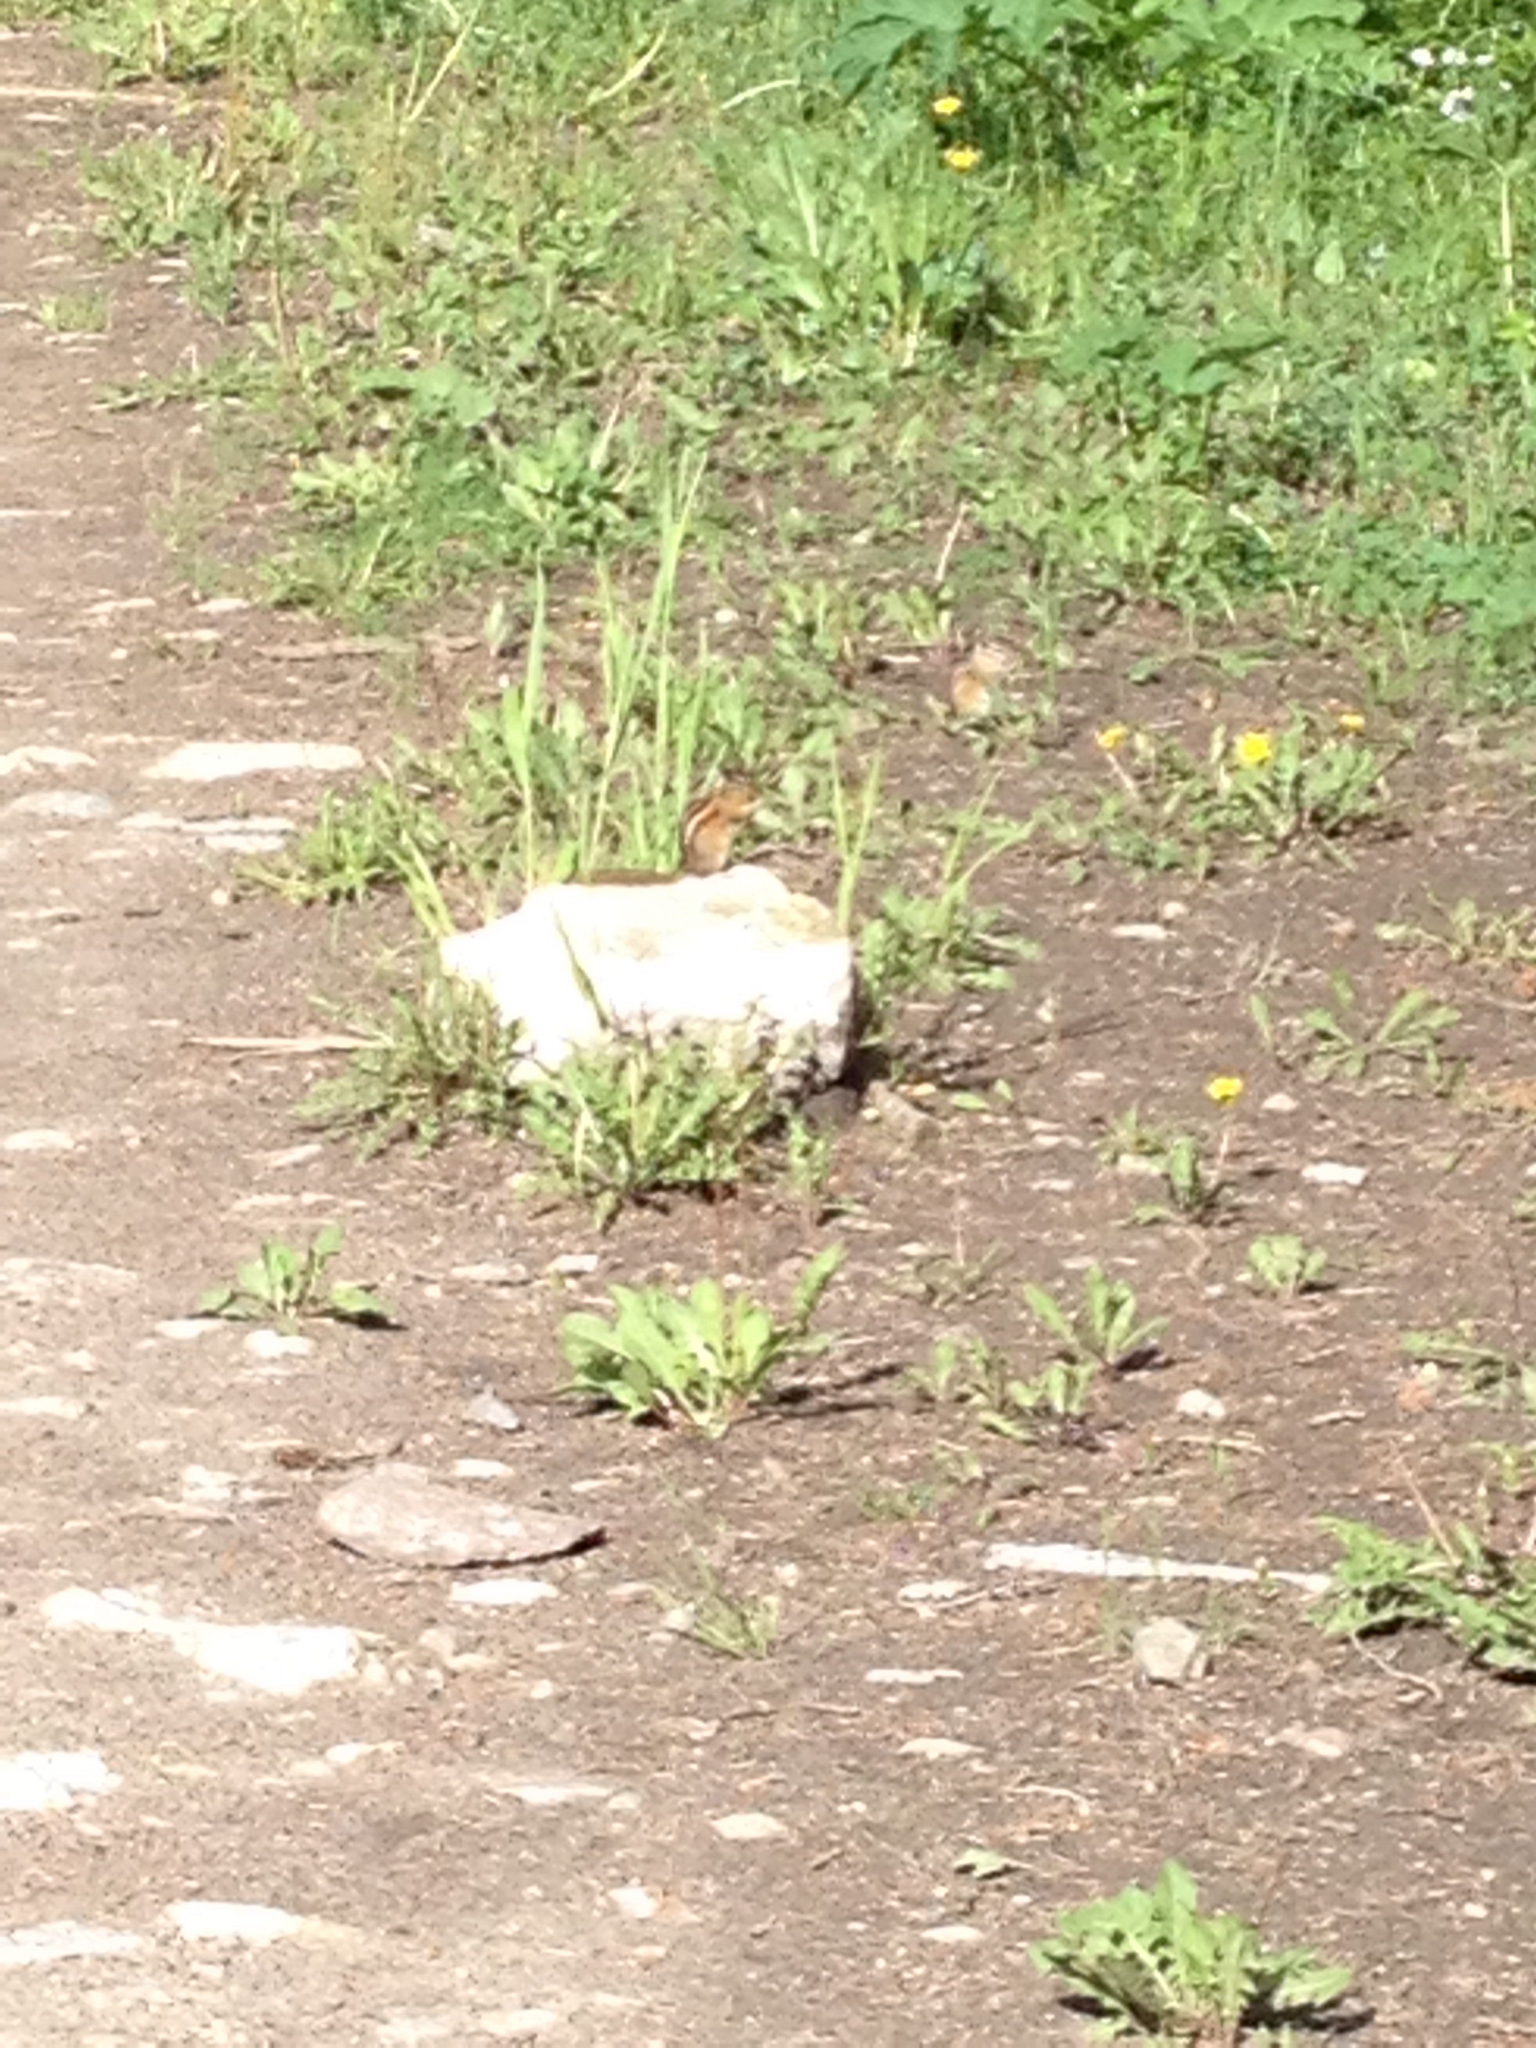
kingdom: Animalia
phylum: Chordata
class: Mammalia
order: Rodentia
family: Sciuridae
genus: Tamias
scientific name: Tamias minimus
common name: Least chipmunk
